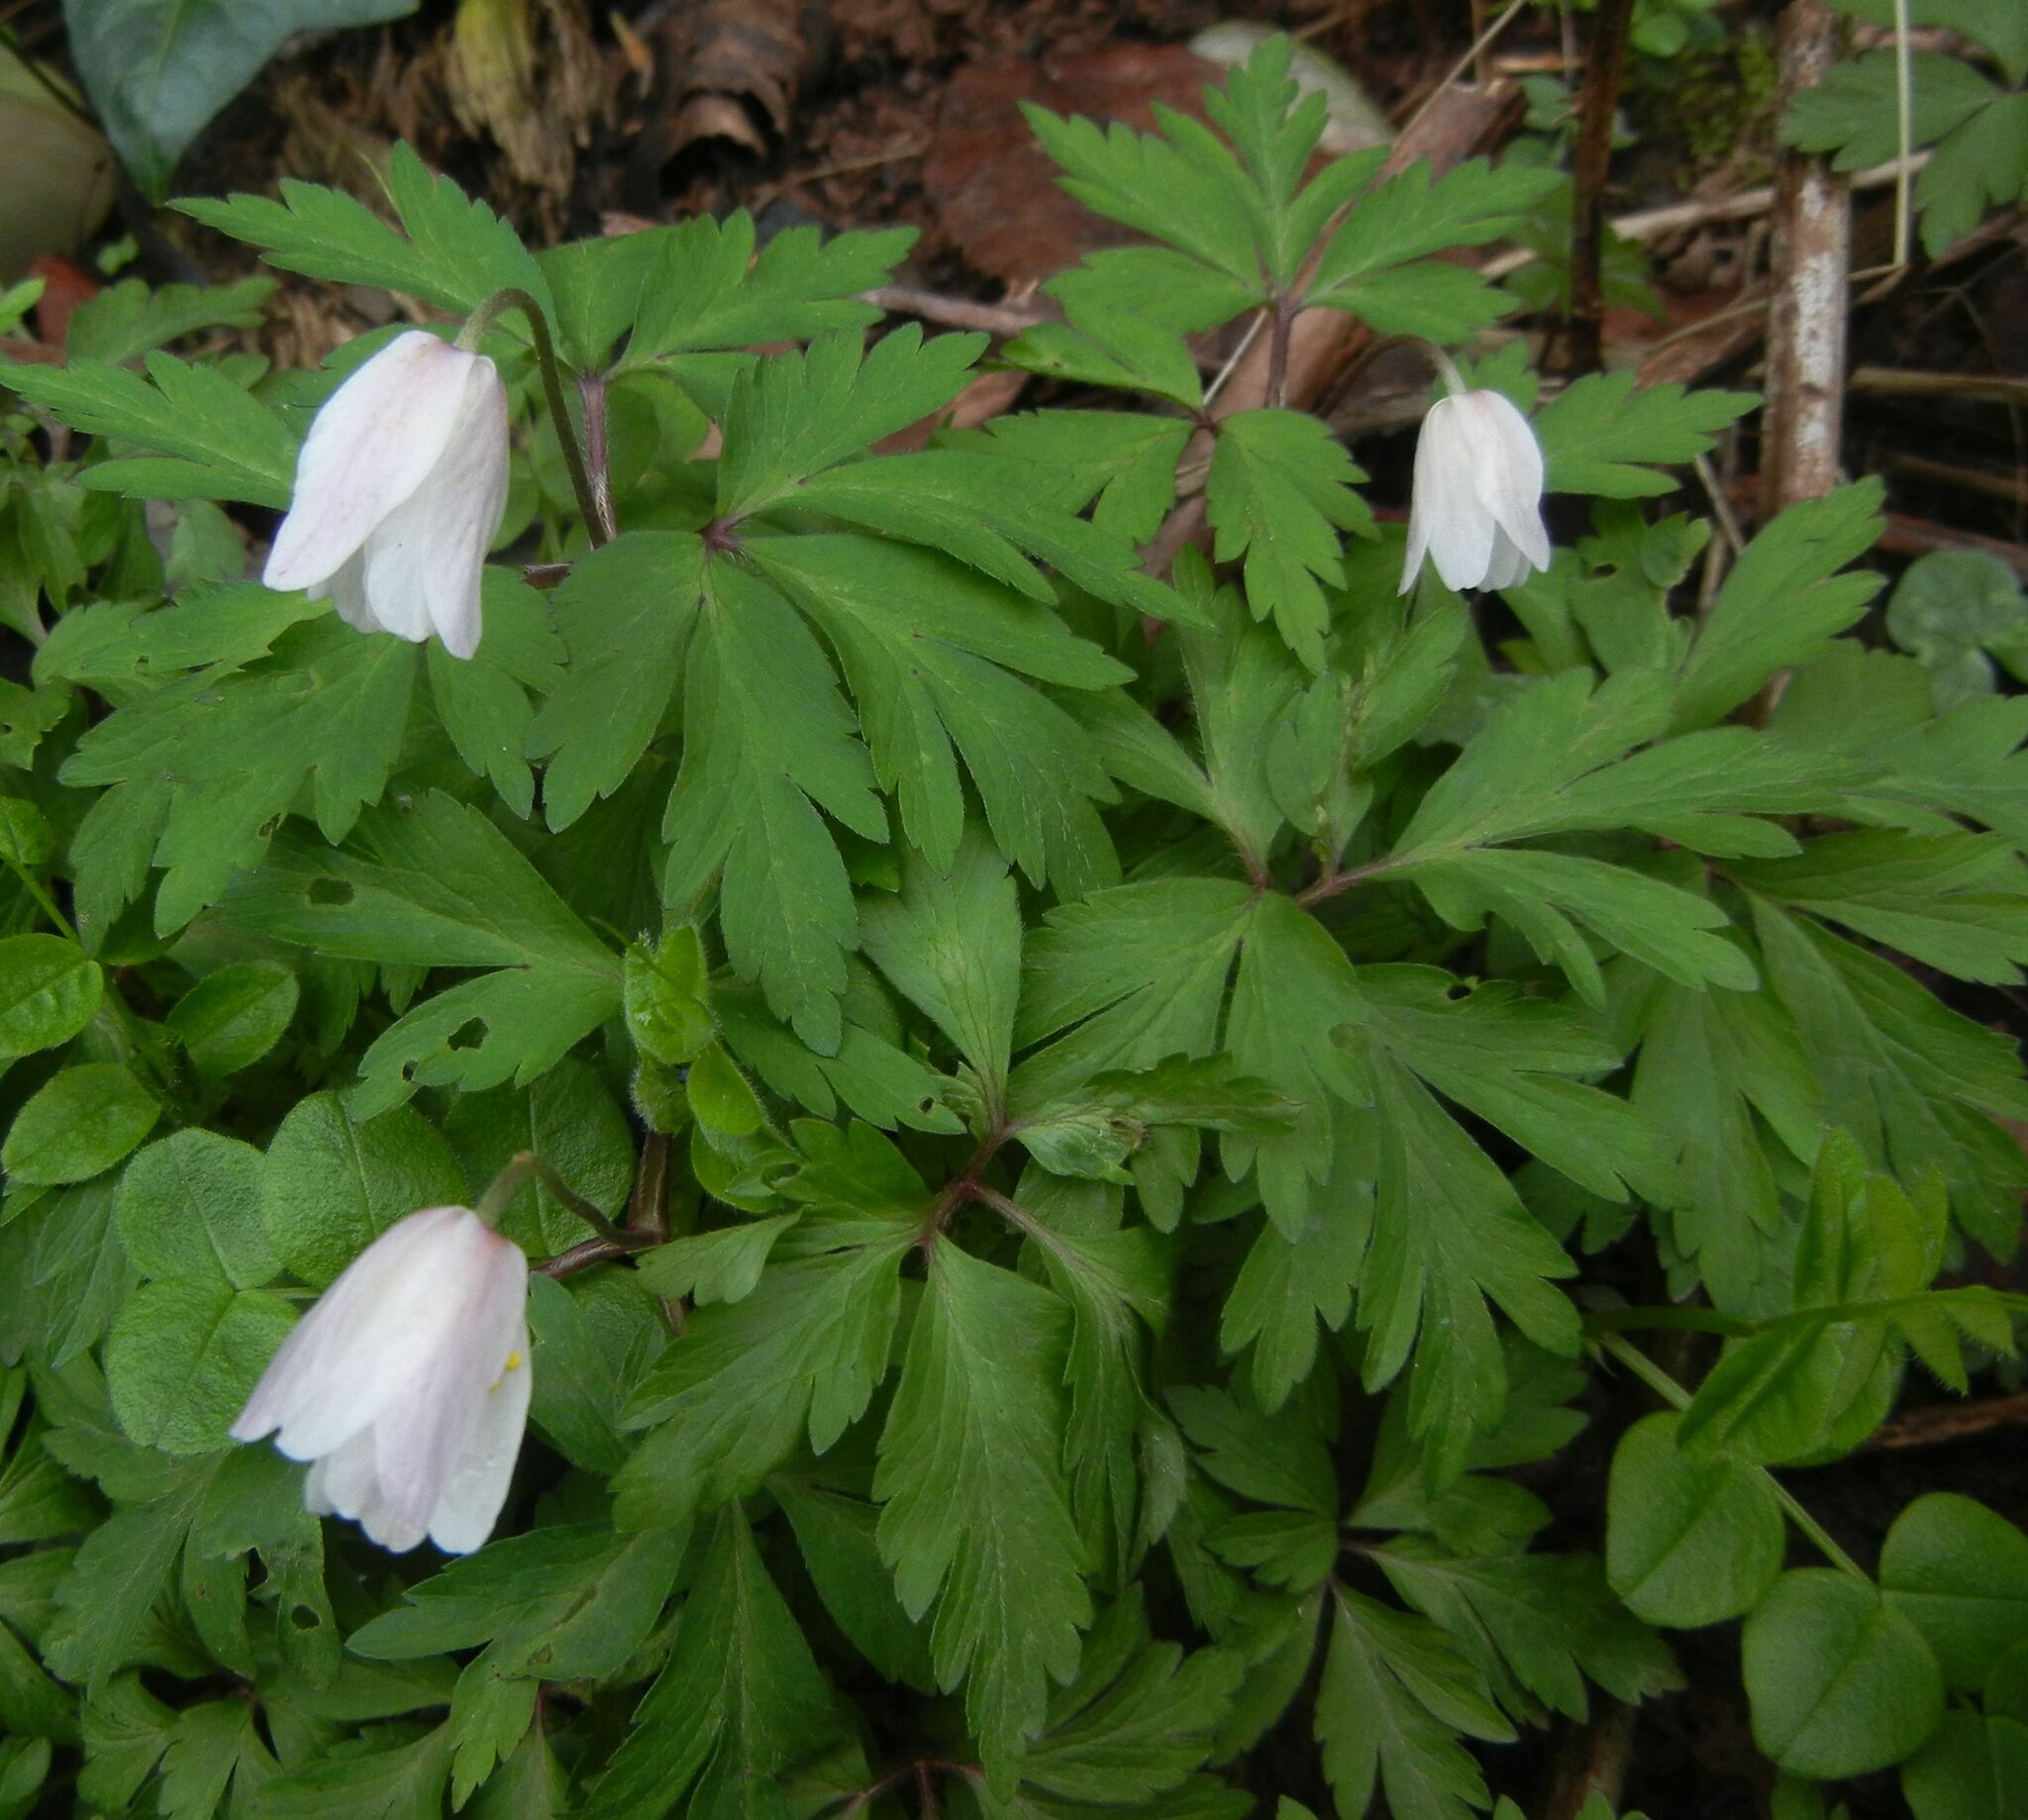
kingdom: Plantae
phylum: Tracheophyta
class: Magnoliopsida
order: Ranunculales
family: Ranunculaceae
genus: Anemone
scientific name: Anemone nemorosa
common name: Wood anemone
